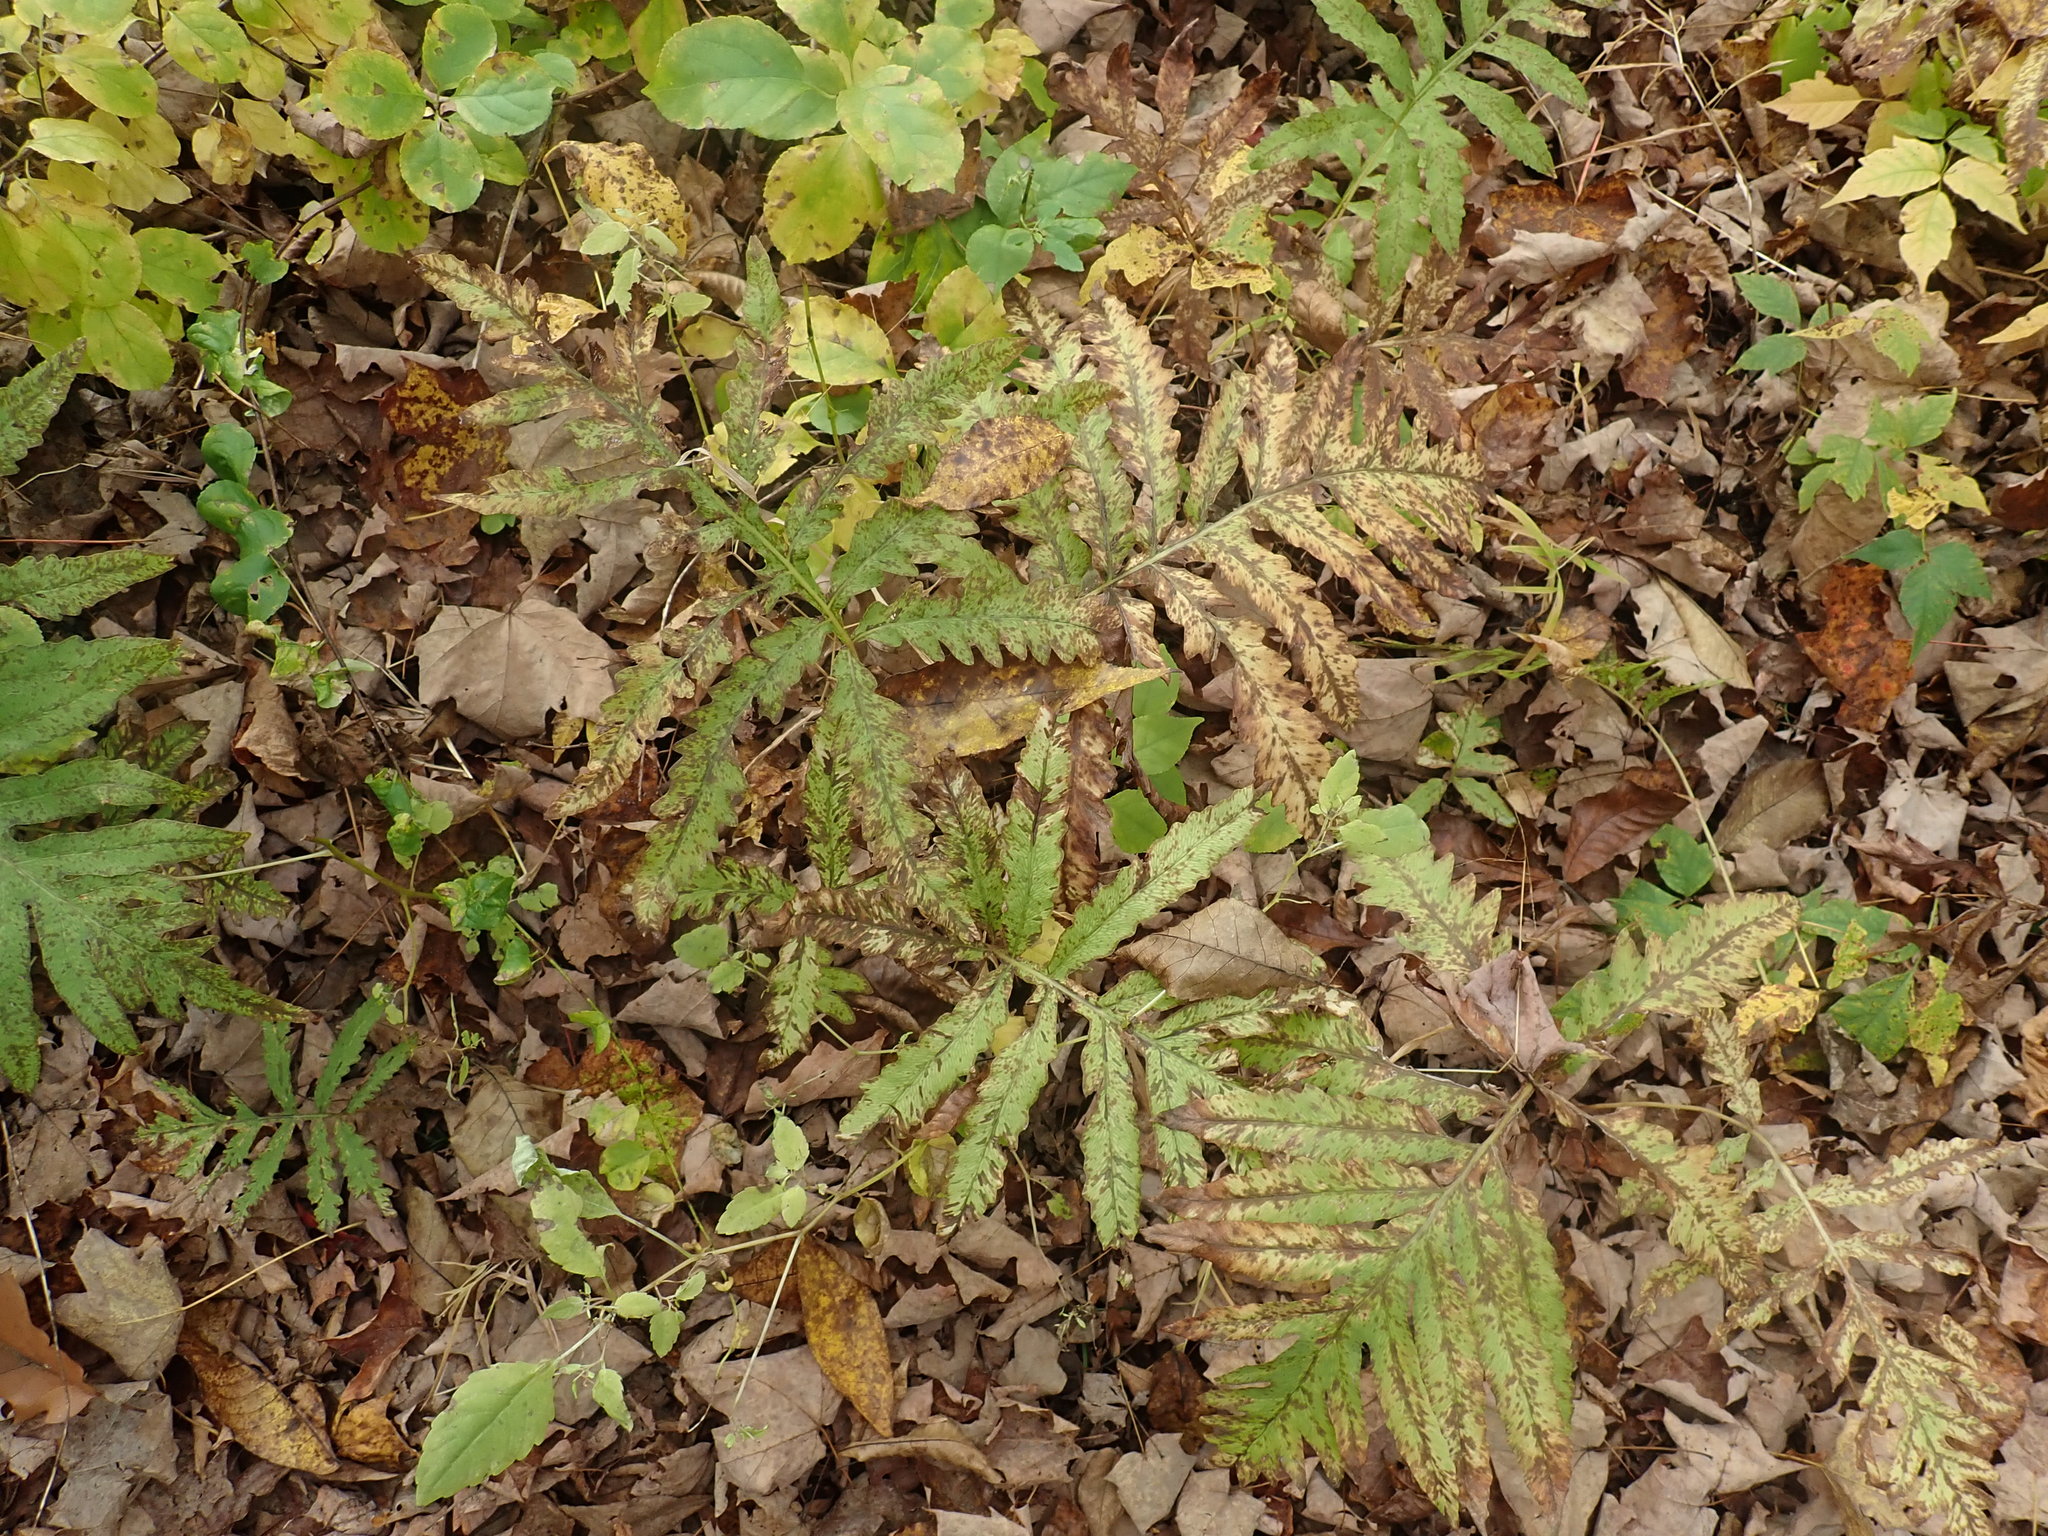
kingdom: Plantae
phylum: Tracheophyta
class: Polypodiopsida
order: Polypodiales
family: Onocleaceae
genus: Onoclea
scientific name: Onoclea sensibilis
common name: Sensitive fern
